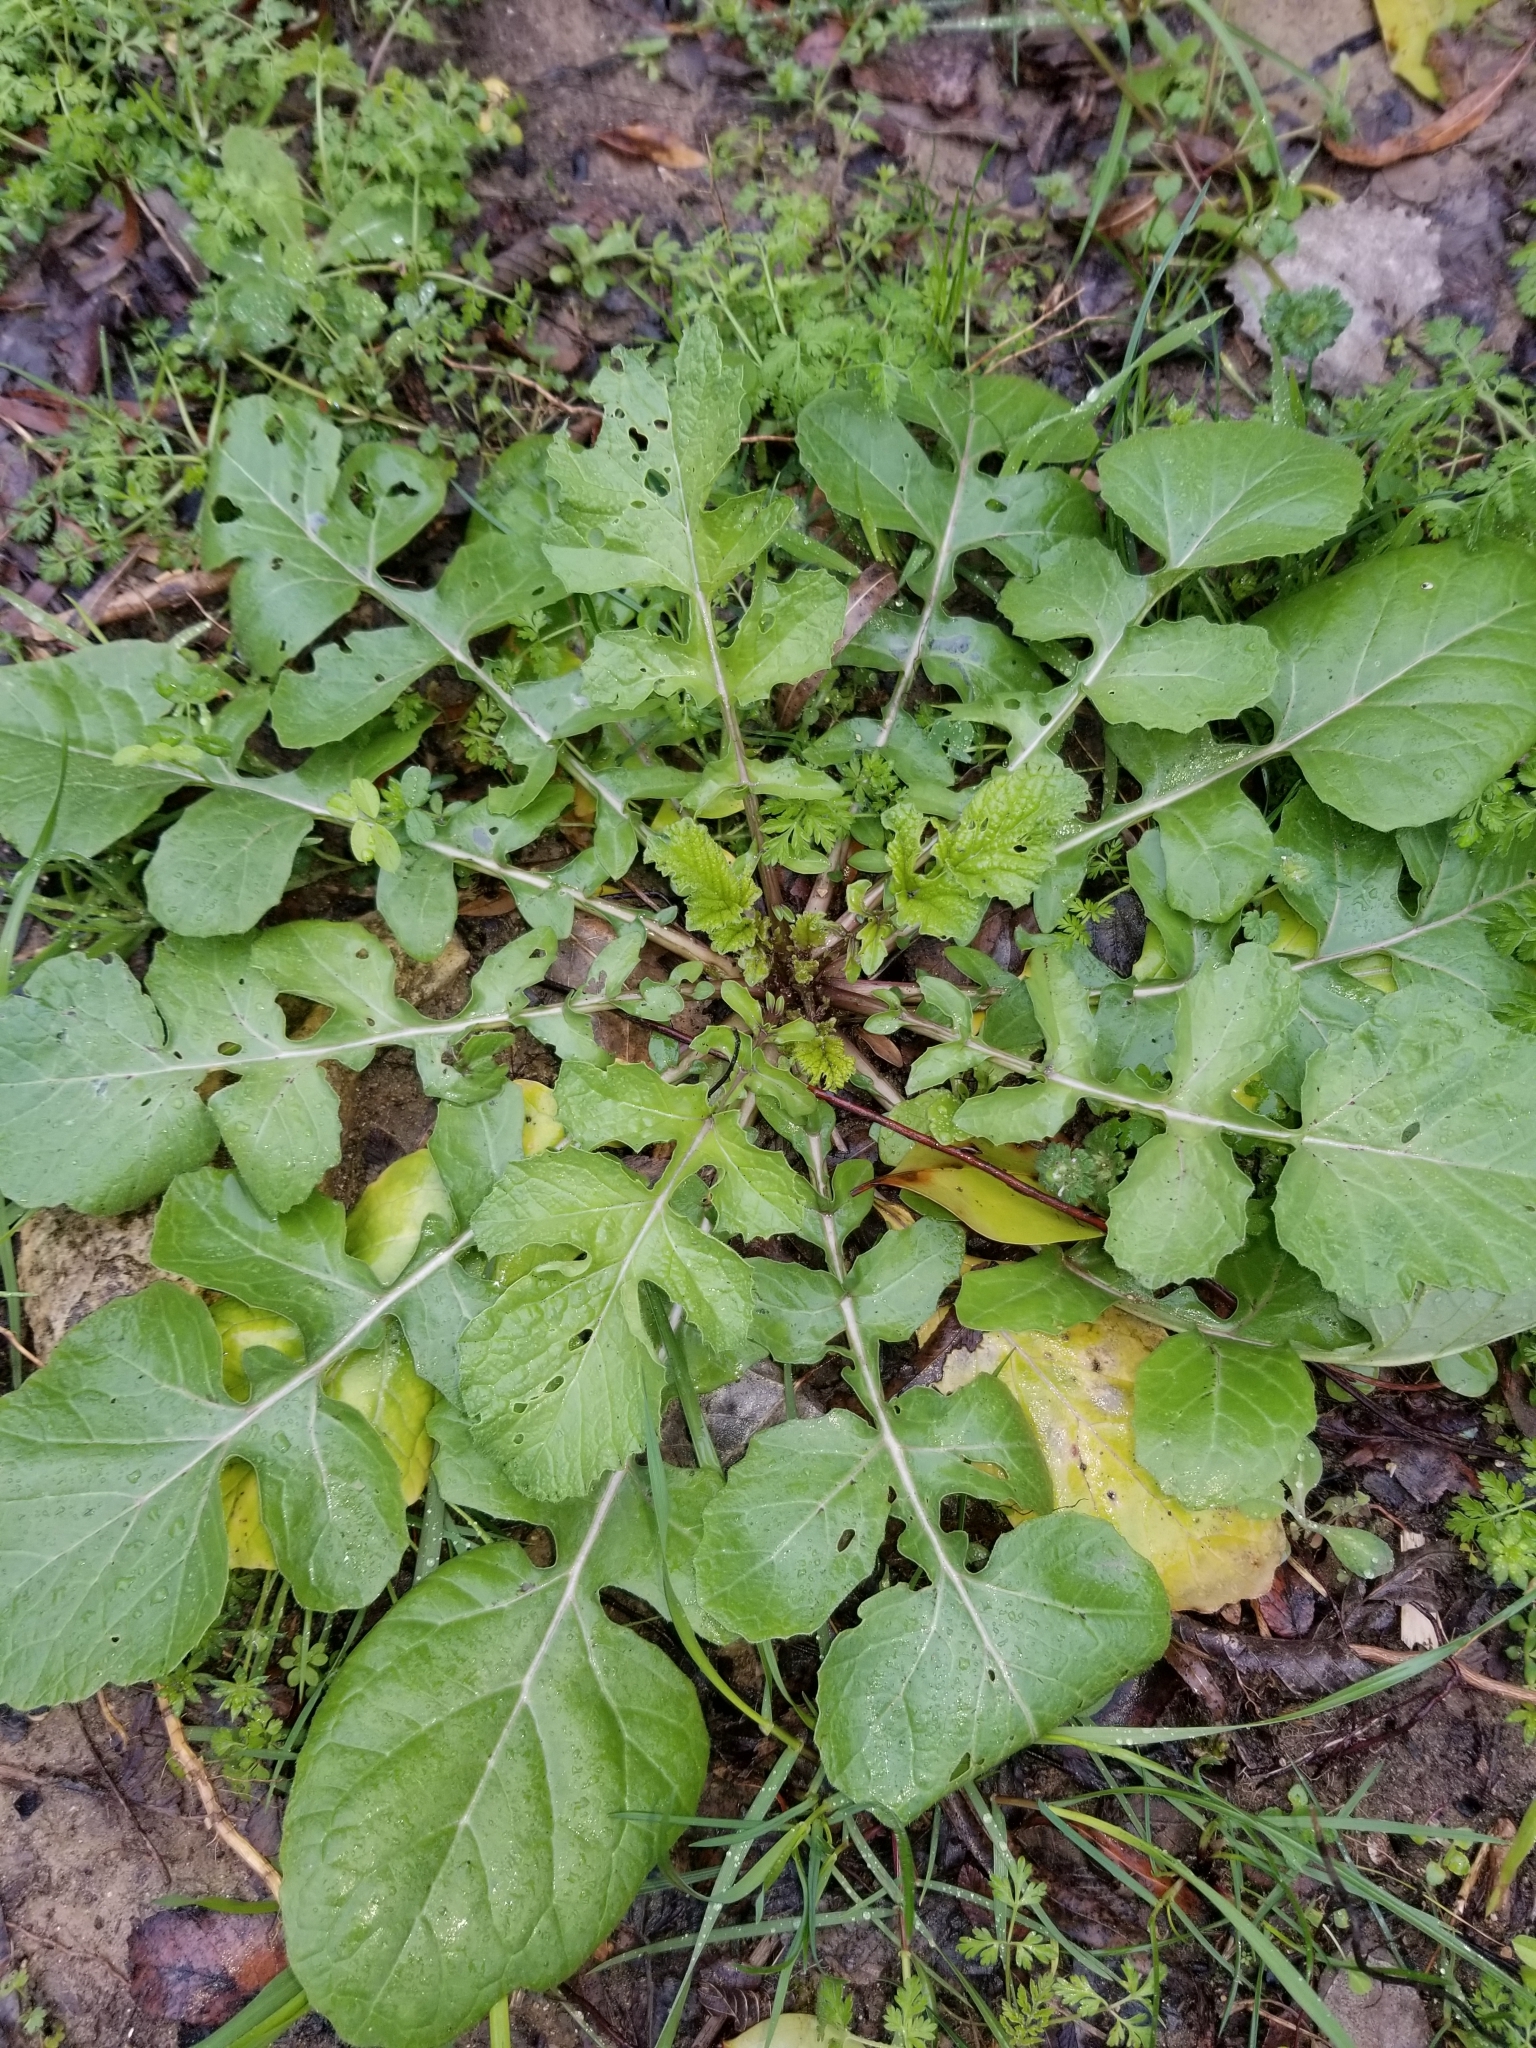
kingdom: Plantae
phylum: Tracheophyta
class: Magnoliopsida
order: Brassicales
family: Brassicaceae
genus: Rapistrum
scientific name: Rapistrum rugosum
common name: Annual bastardcabbage
